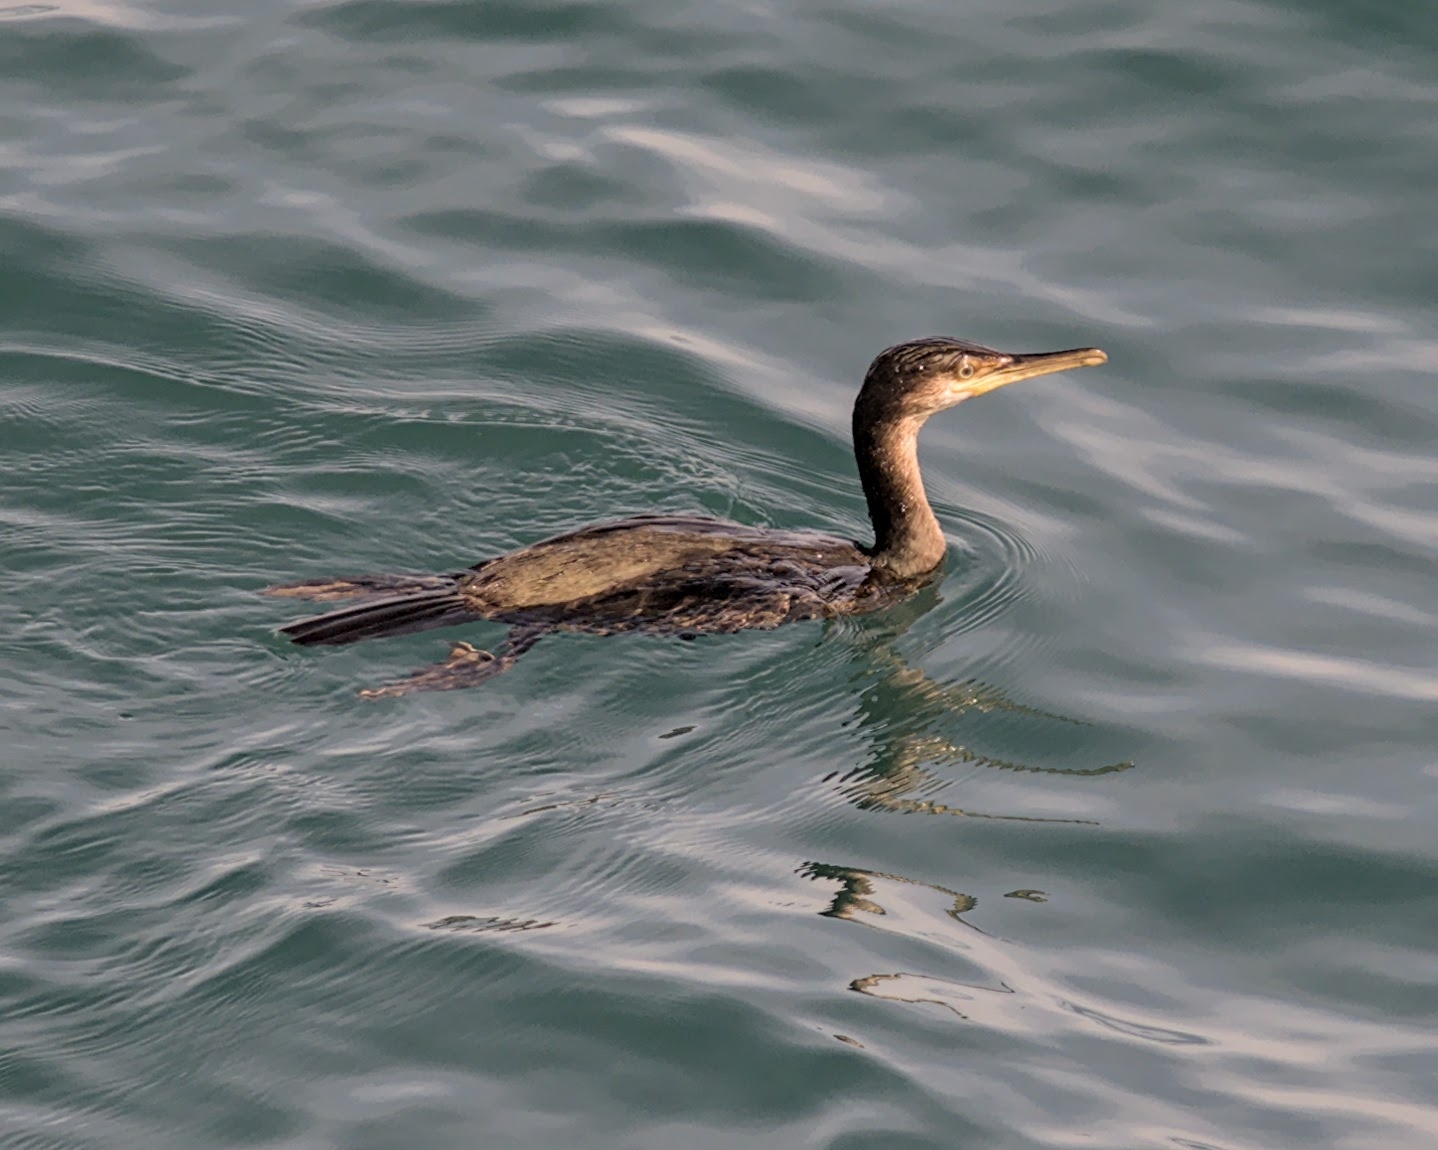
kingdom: Animalia
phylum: Chordata
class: Aves
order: Suliformes
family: Phalacrocoracidae
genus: Phalacrocorax
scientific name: Phalacrocorax aristotelis
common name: European shag
